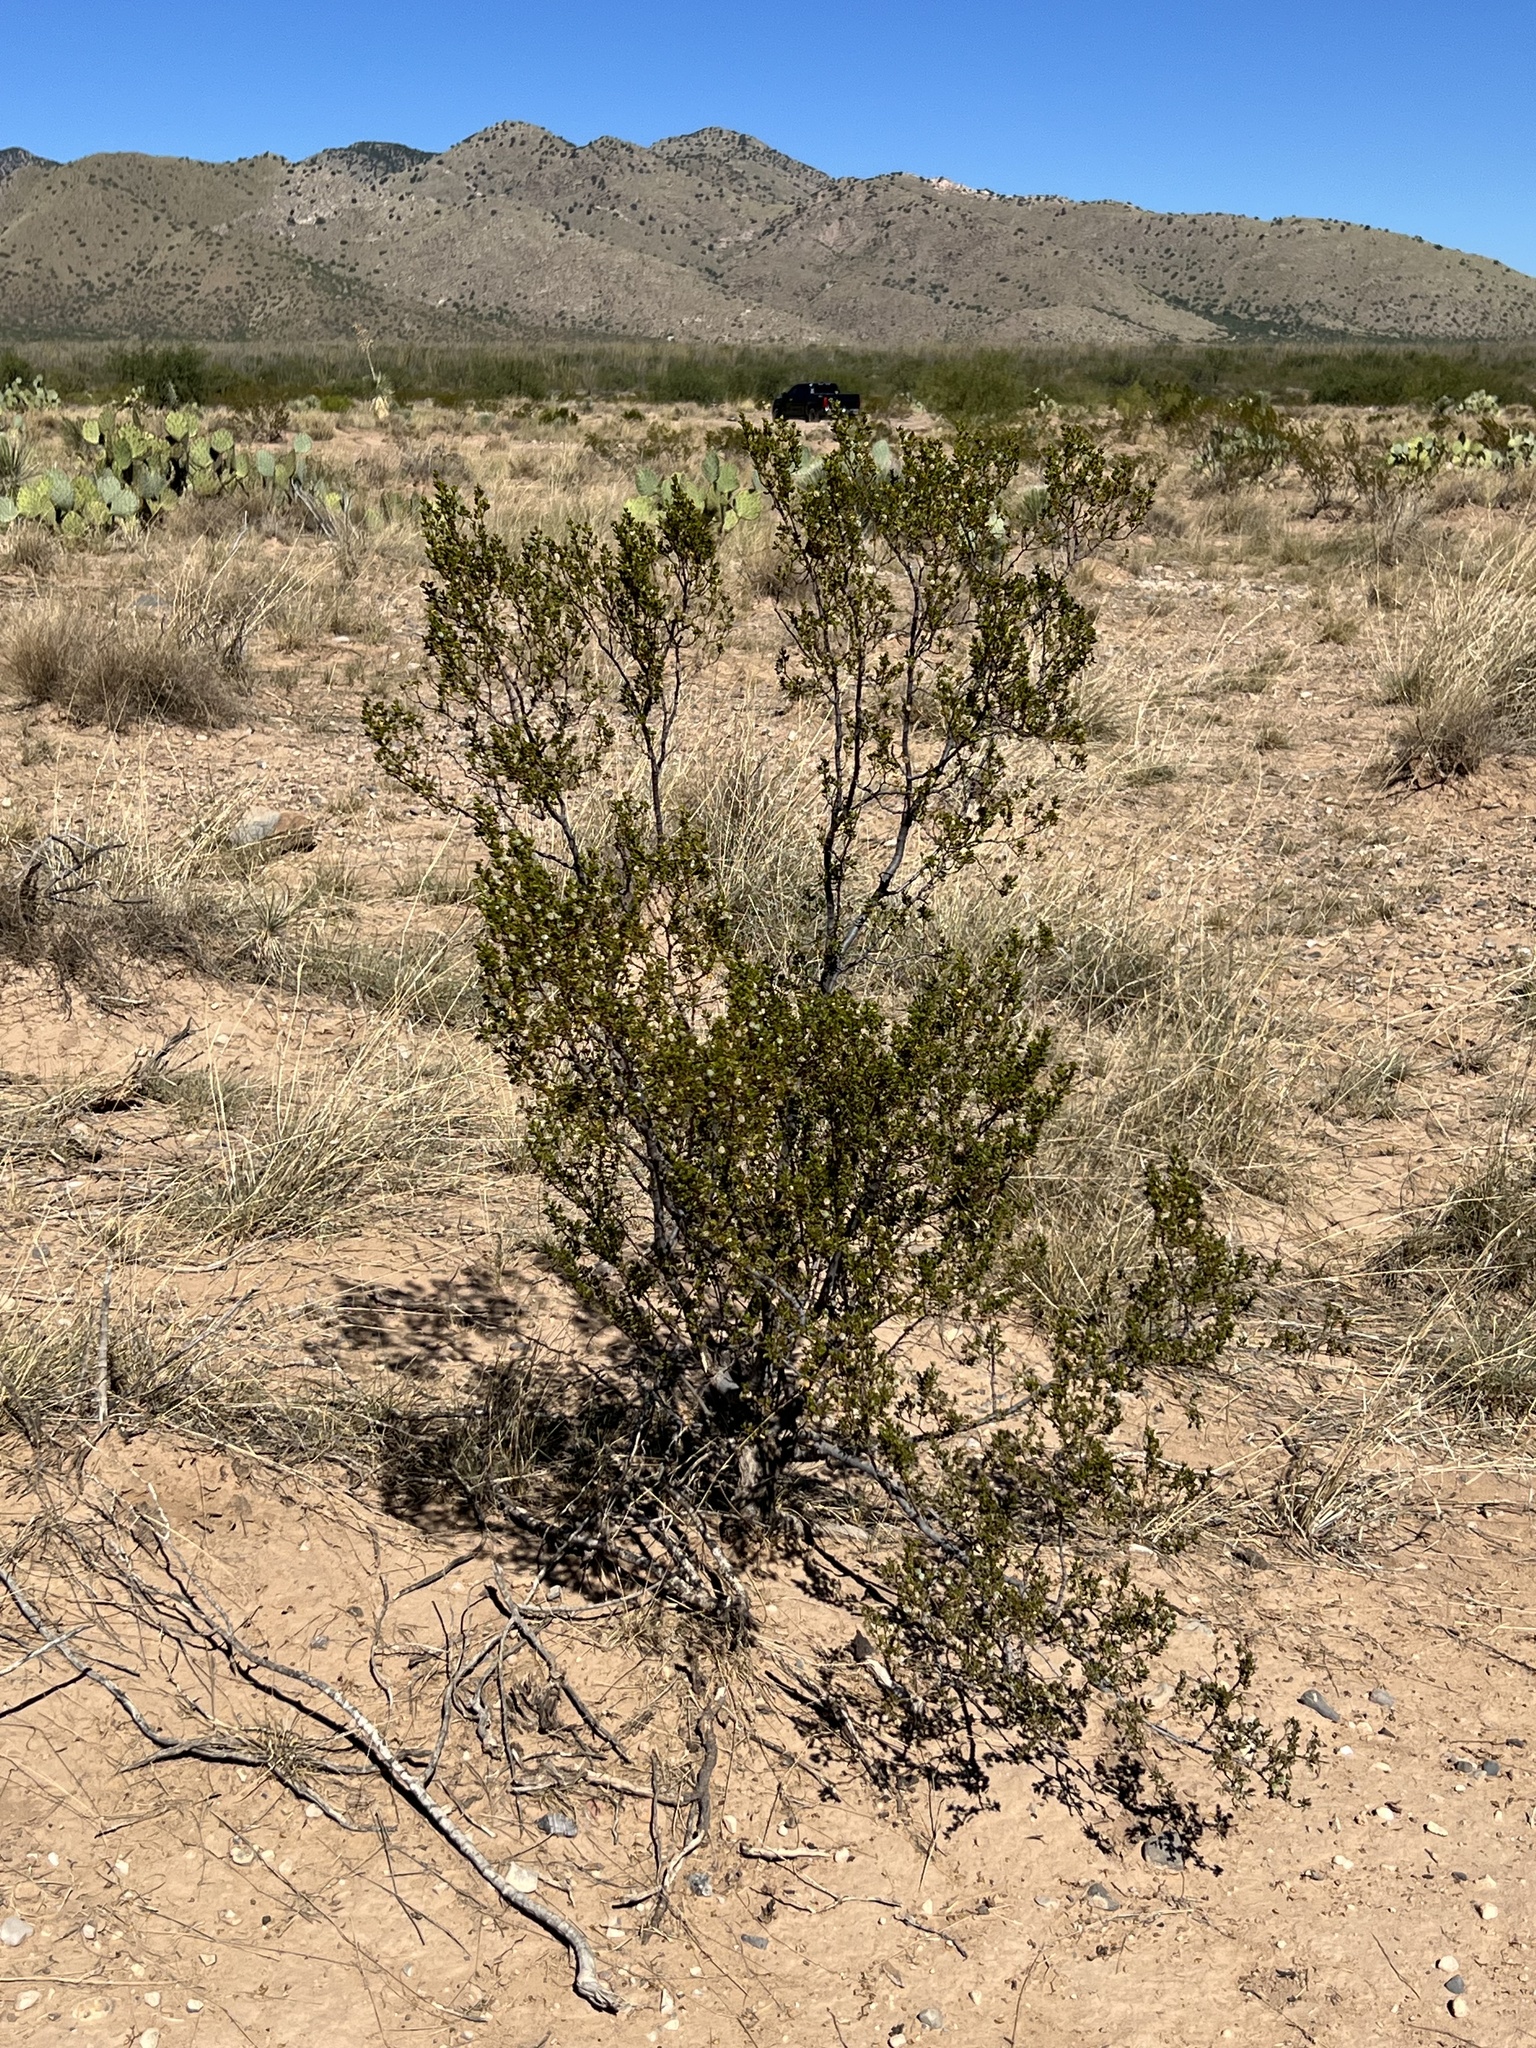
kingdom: Plantae
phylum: Tracheophyta
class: Magnoliopsida
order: Zygophyllales
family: Zygophyllaceae
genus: Larrea
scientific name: Larrea tridentata
